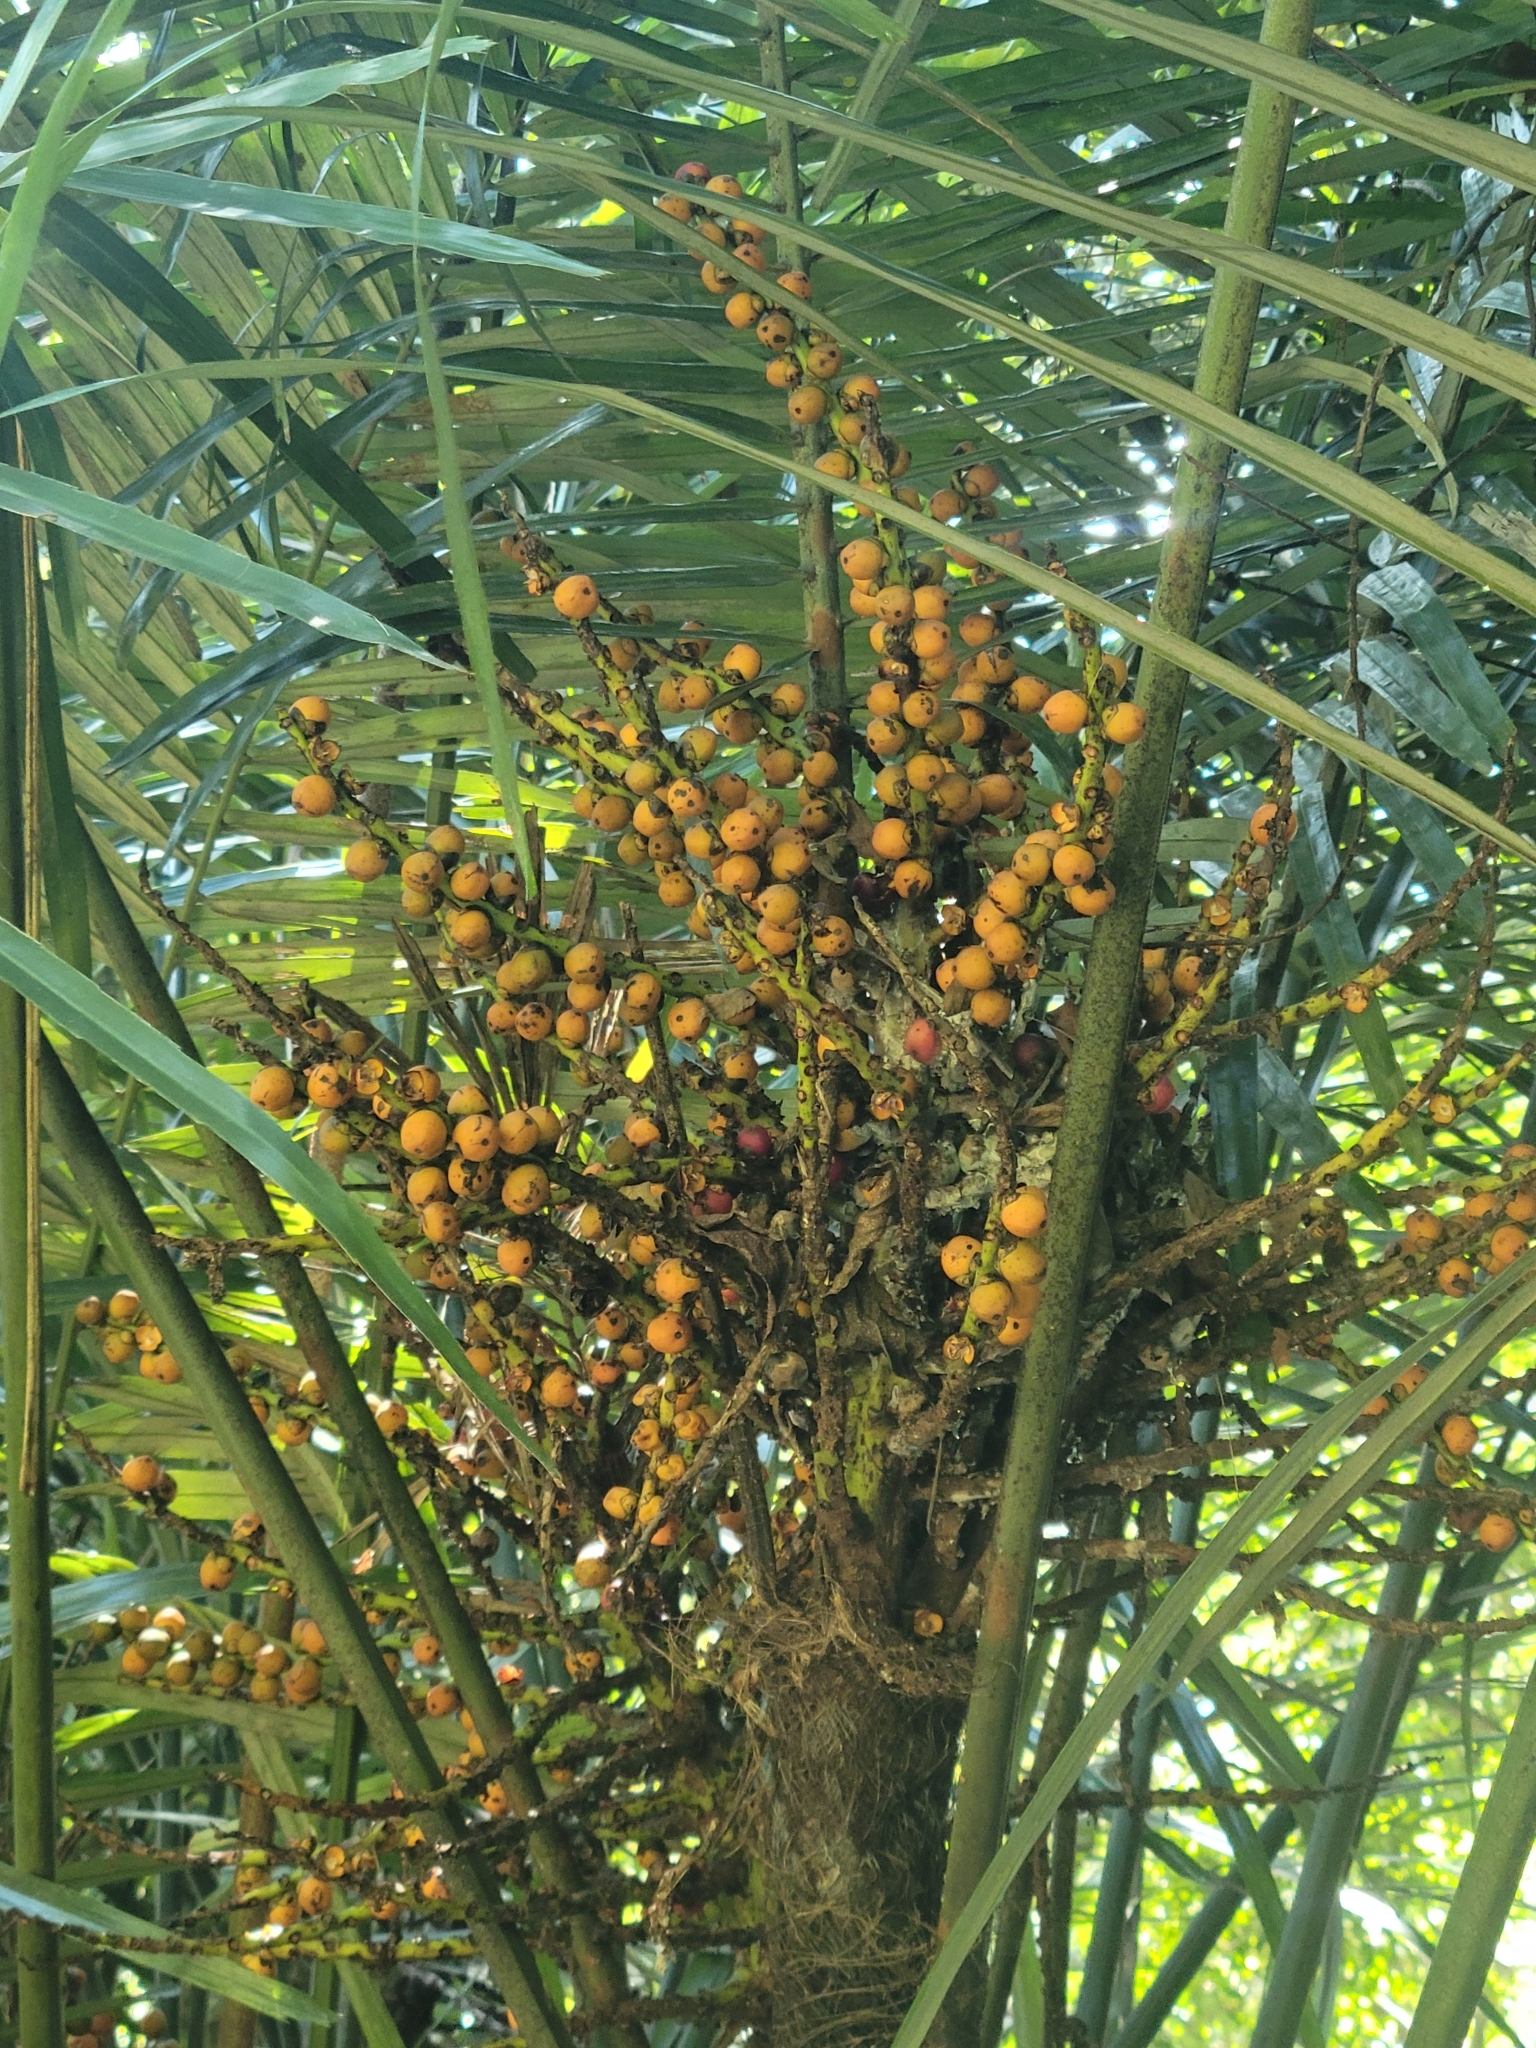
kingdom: Plantae
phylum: Tracheophyta
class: Liliopsida
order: Arecales
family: Arecaceae
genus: Arenga
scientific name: Arenga engleri
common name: Formosan sugar palm
